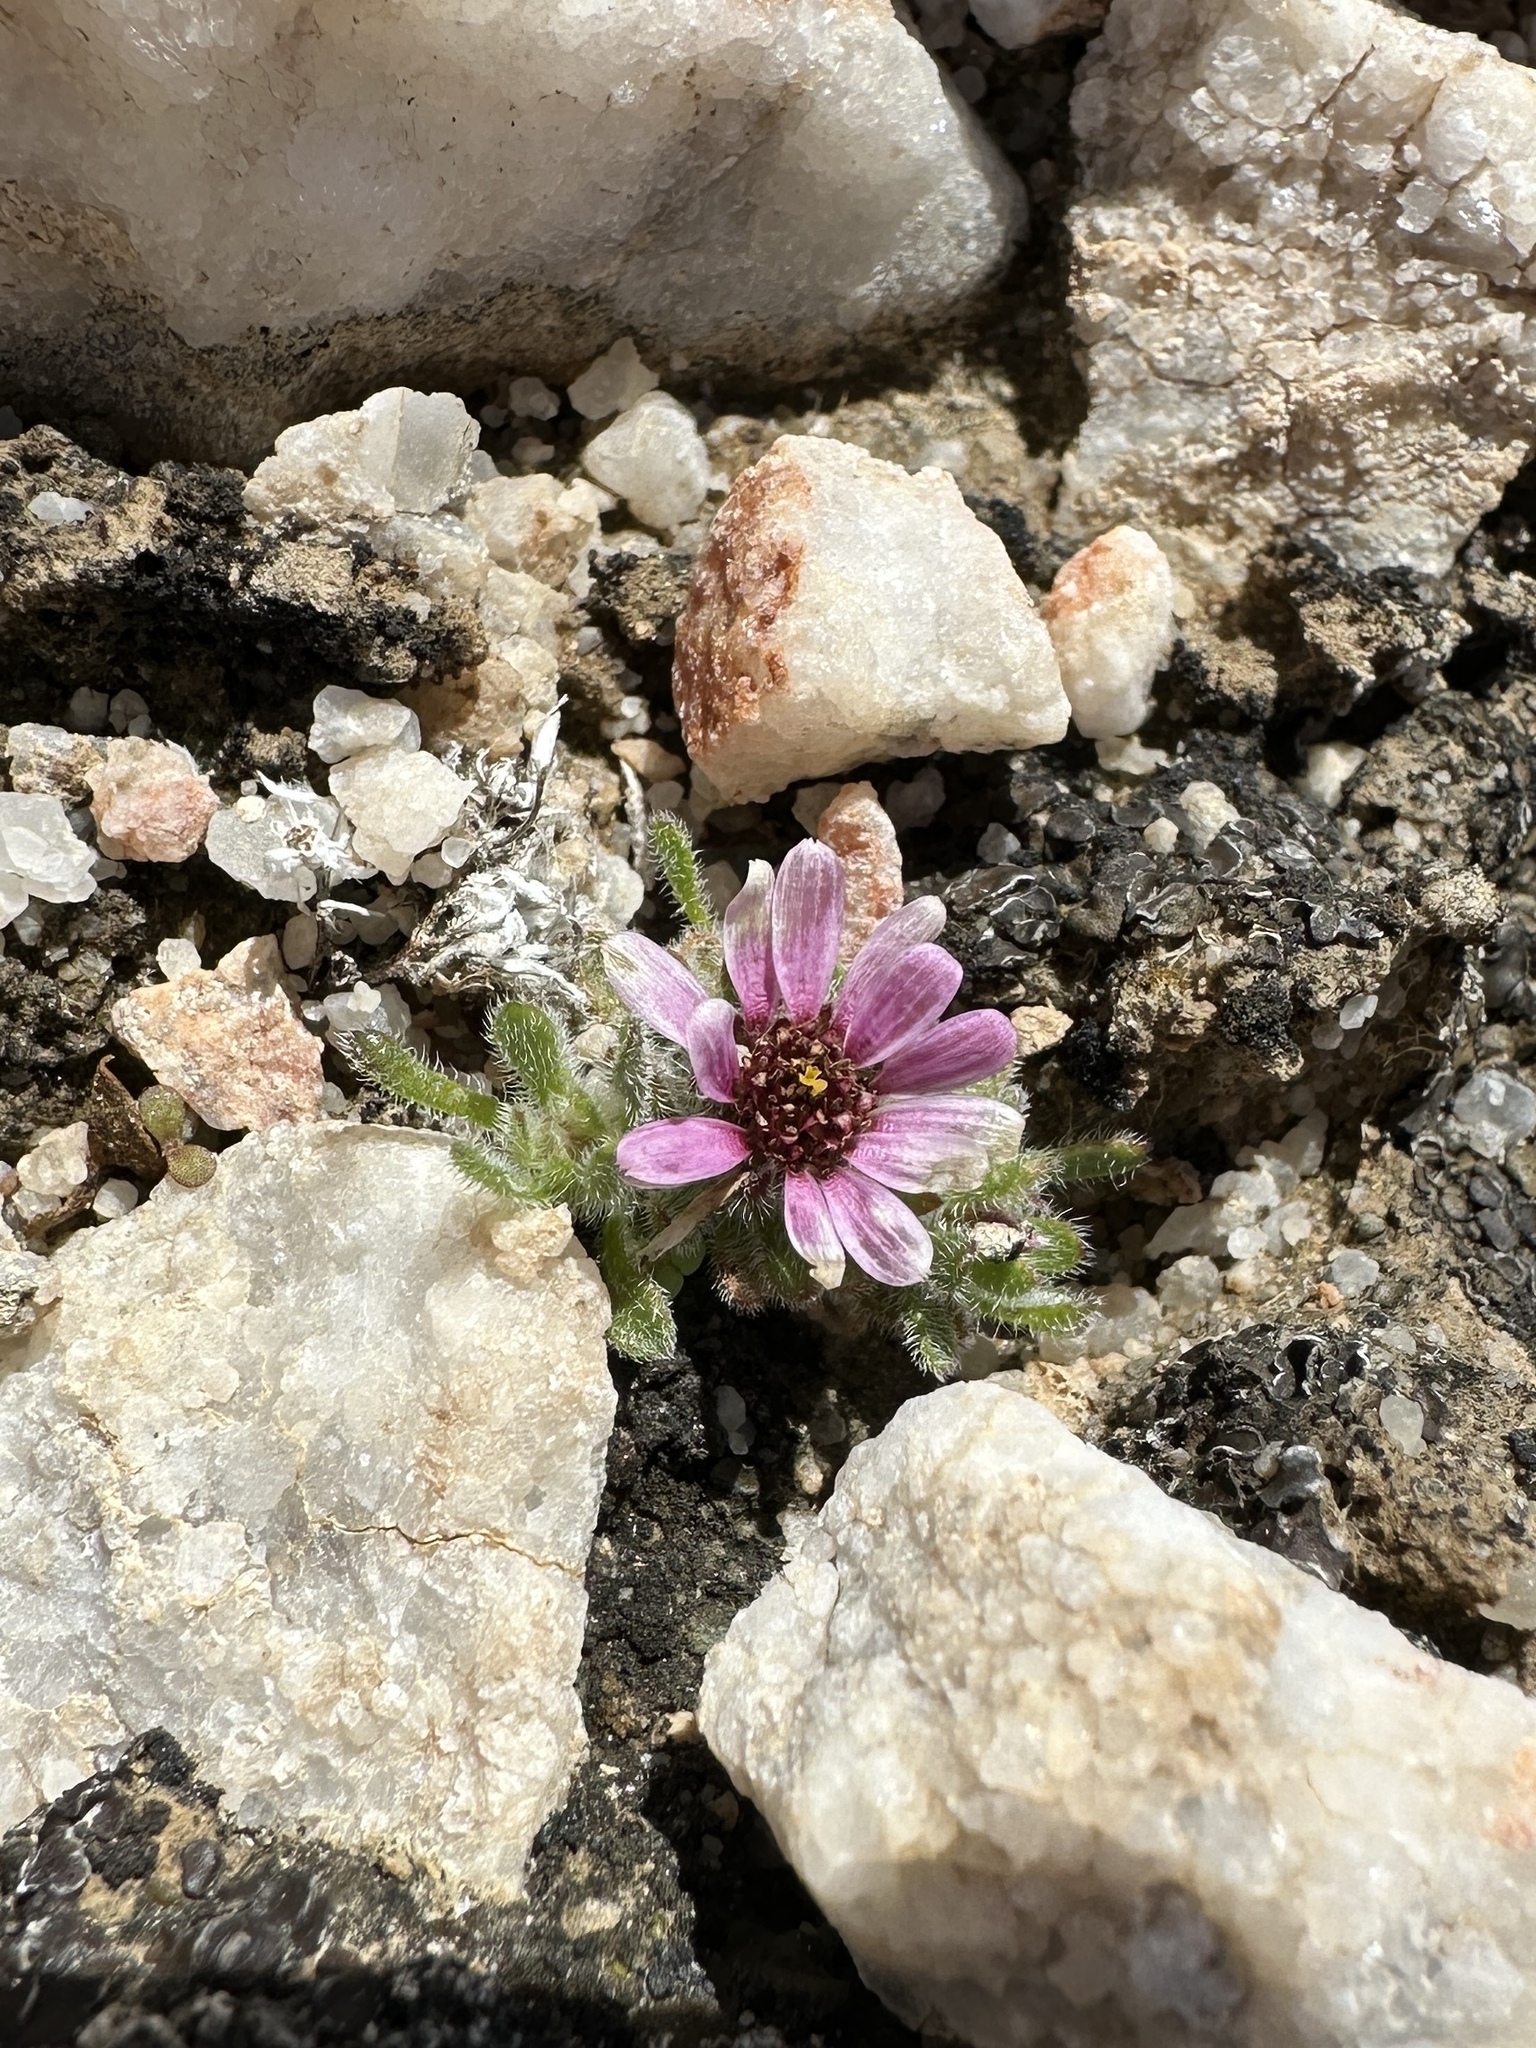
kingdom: Plantae
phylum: Tracheophyta
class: Magnoliopsida
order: Asterales
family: Asteraceae
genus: Monoptilon
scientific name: Monoptilon bellioides
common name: Bristly desertstar
